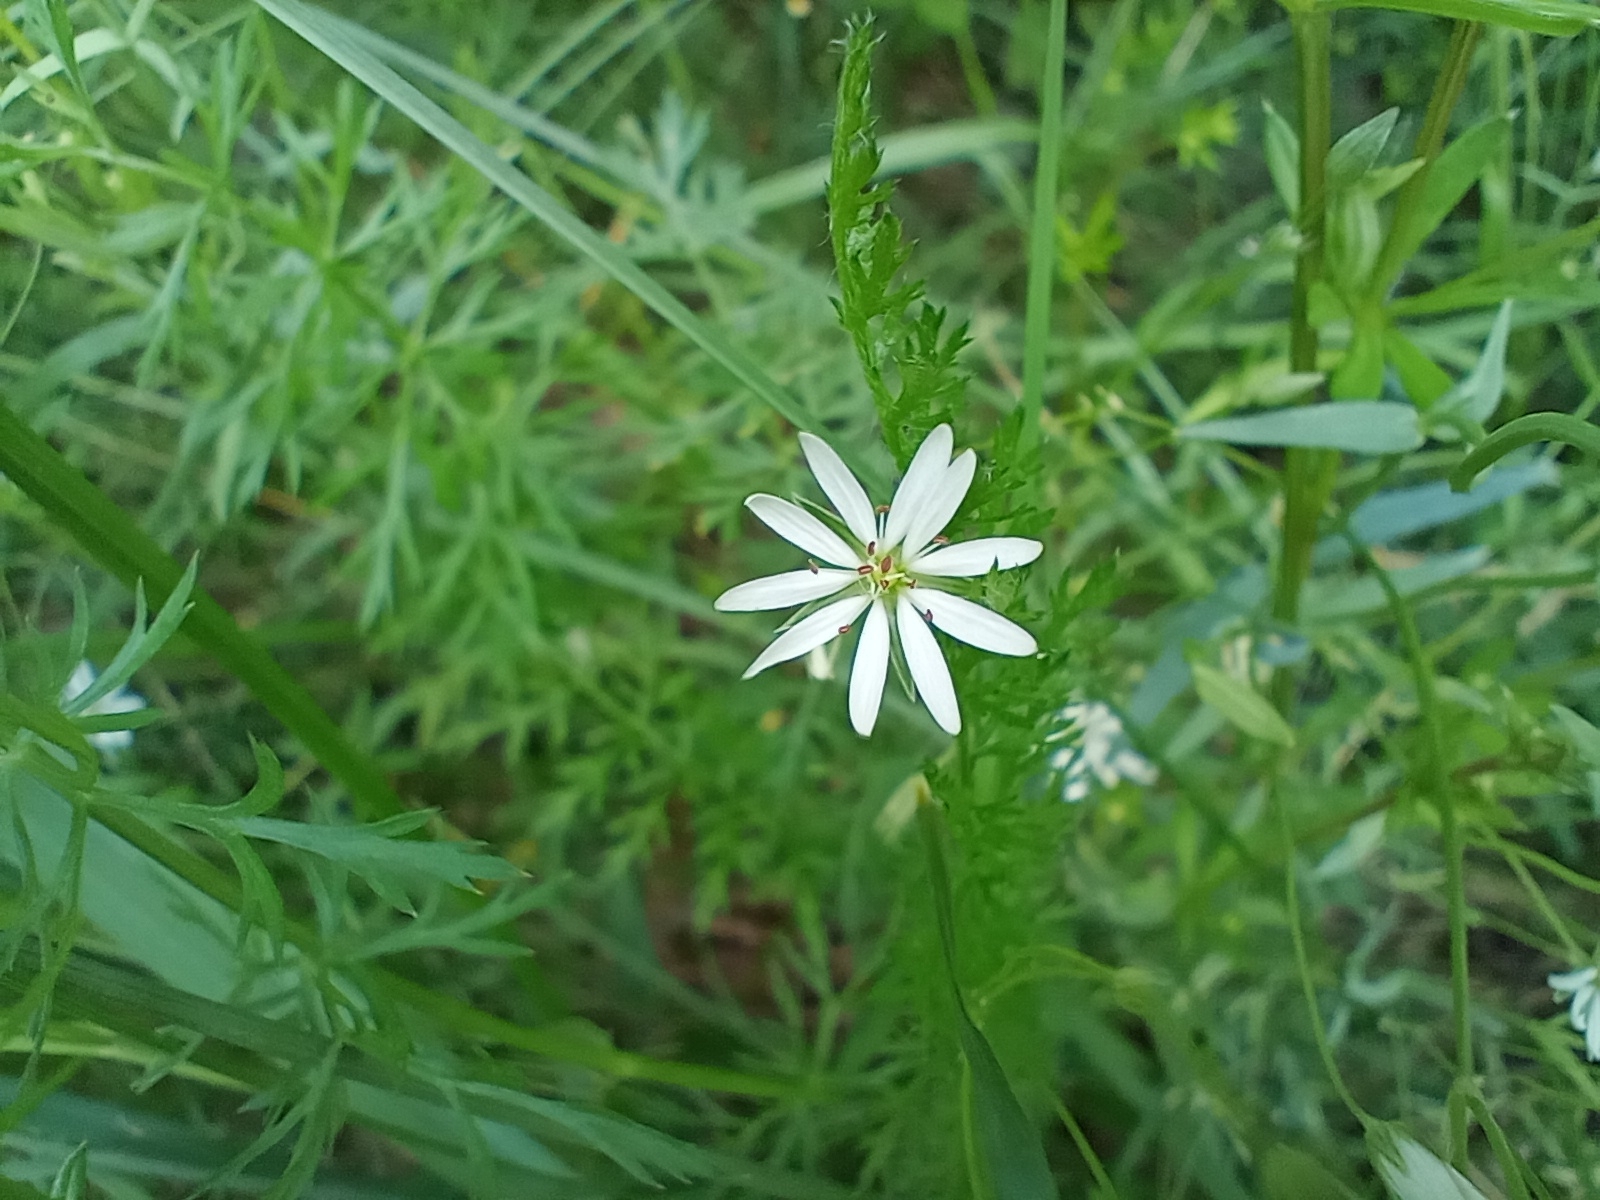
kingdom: Plantae
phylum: Tracheophyta
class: Magnoliopsida
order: Caryophyllales
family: Caryophyllaceae
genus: Stellaria
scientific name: Stellaria graminea
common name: Grass-like starwort
